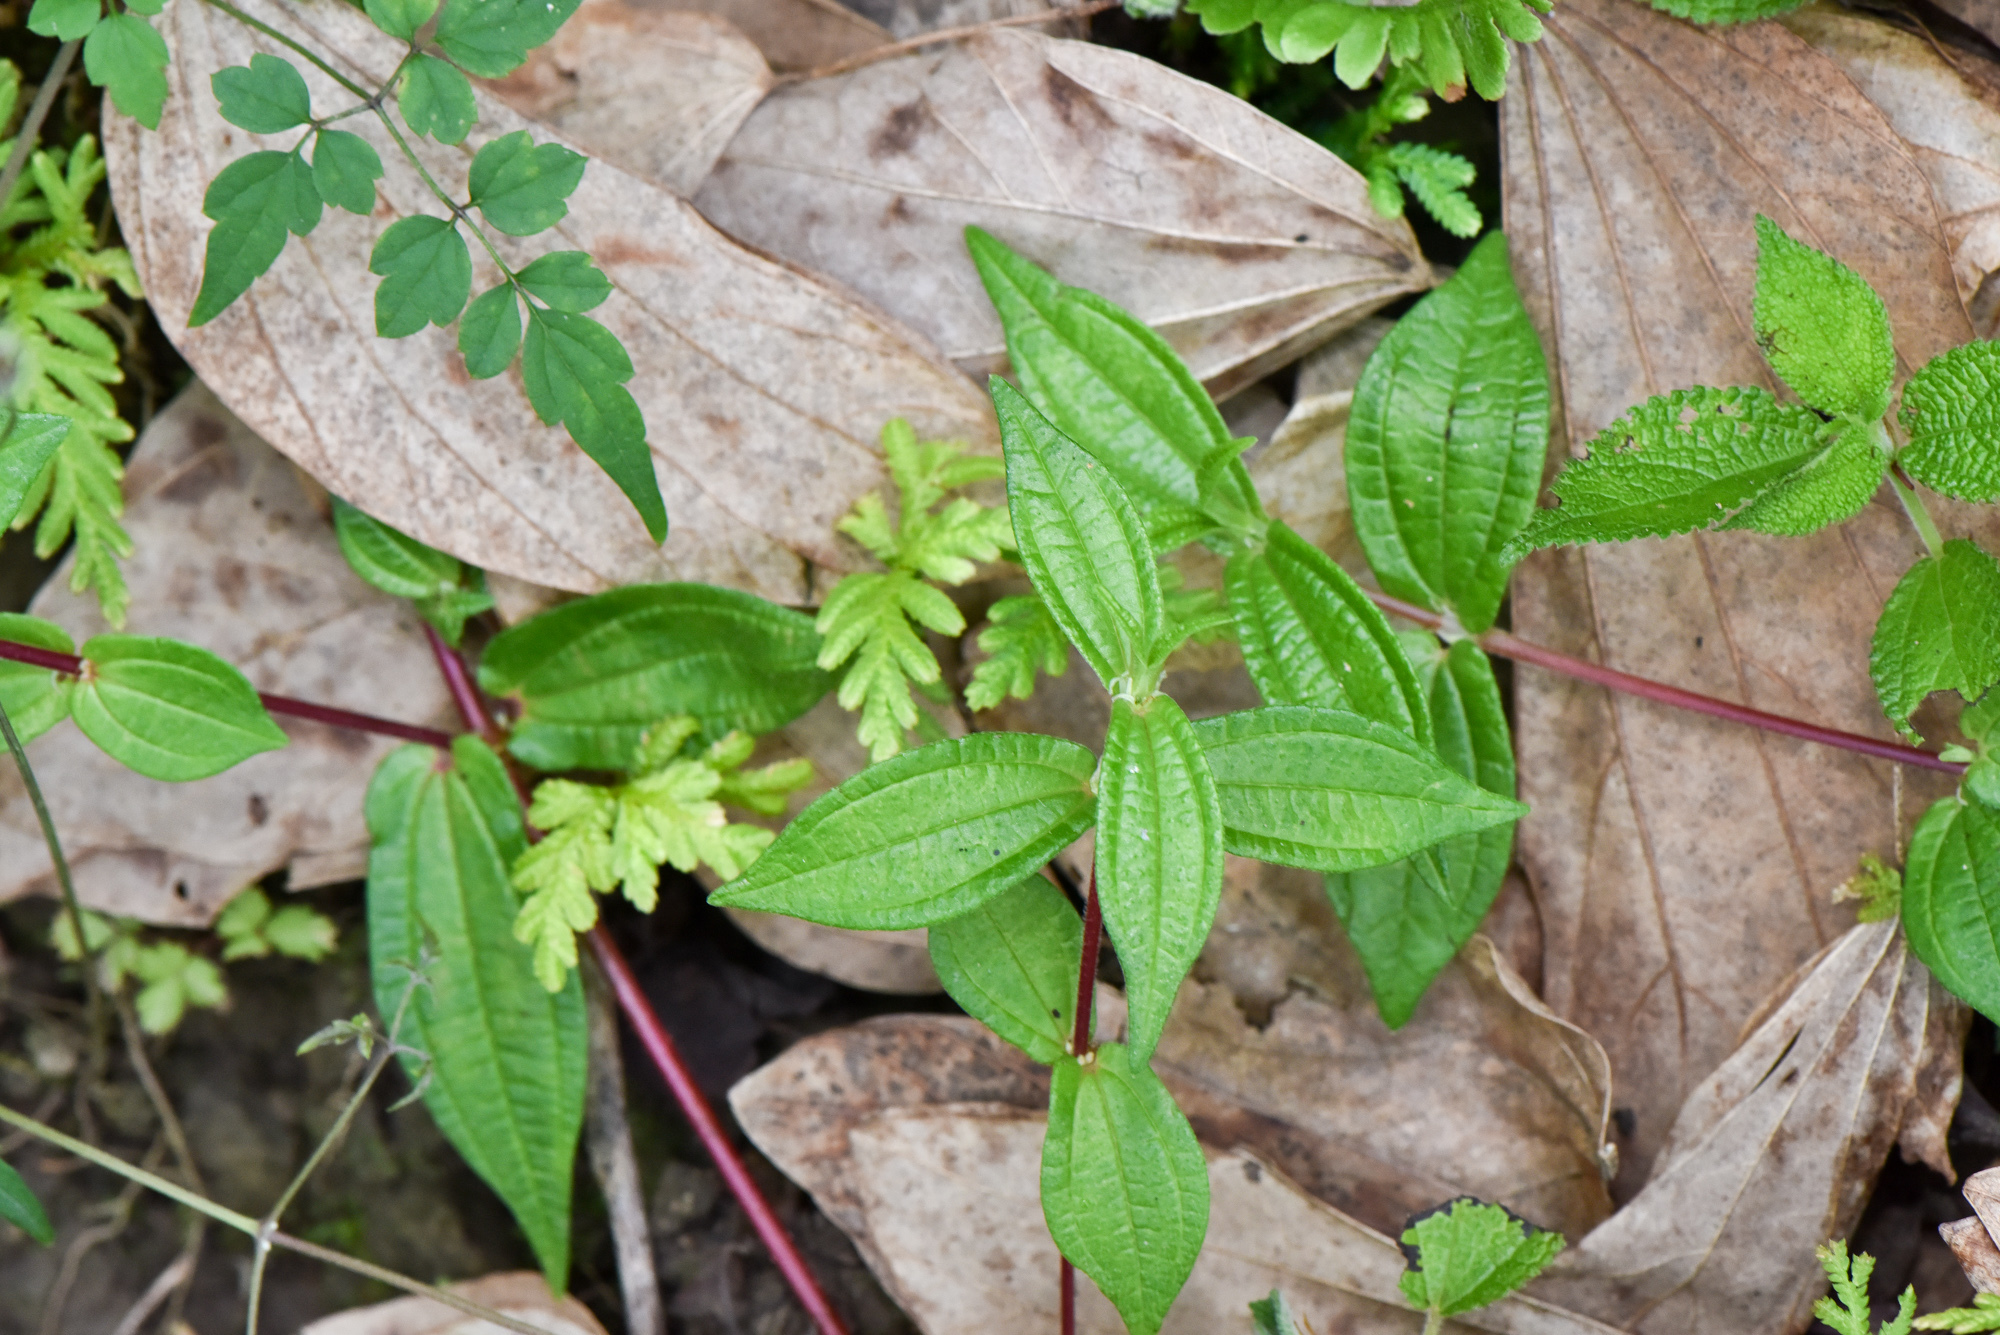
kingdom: Plantae
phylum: Tracheophyta
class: Magnoliopsida
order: Rosales
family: Urticaceae
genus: Gonostegia
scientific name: Gonostegia triandra
